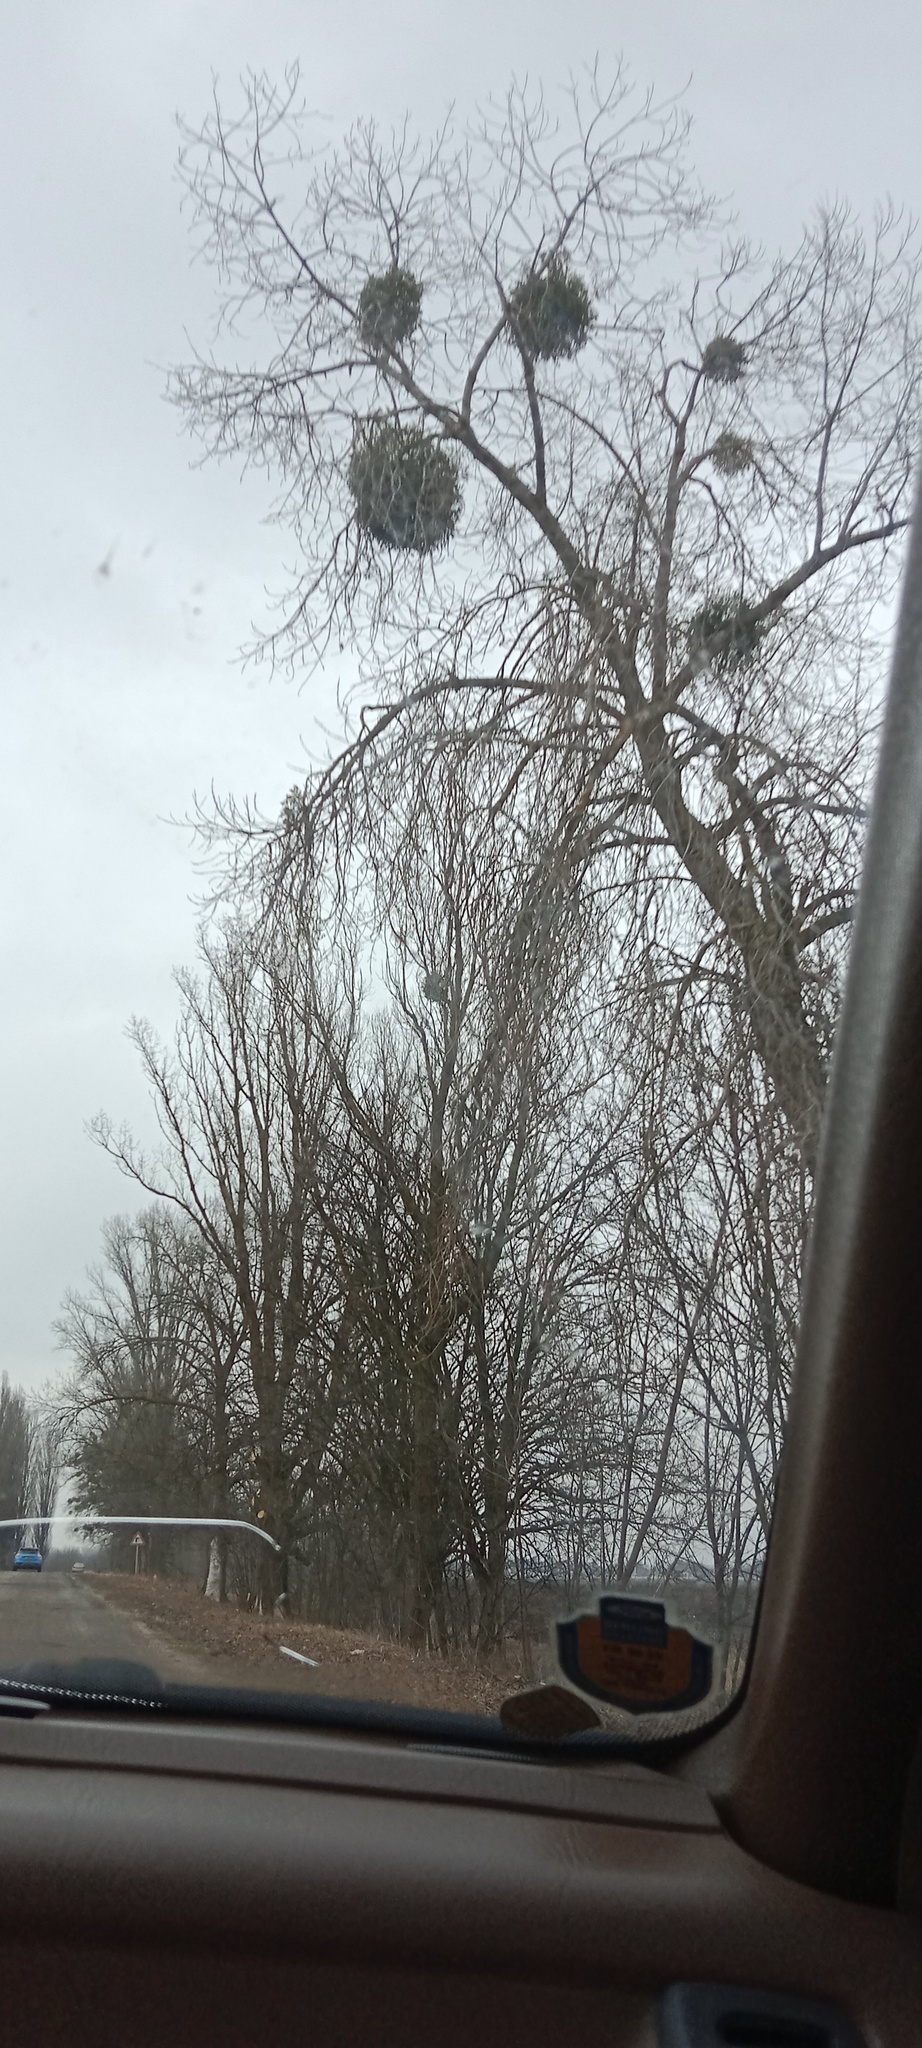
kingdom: Plantae
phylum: Tracheophyta
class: Magnoliopsida
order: Santalales
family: Viscaceae
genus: Viscum
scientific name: Viscum album
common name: Mistletoe
